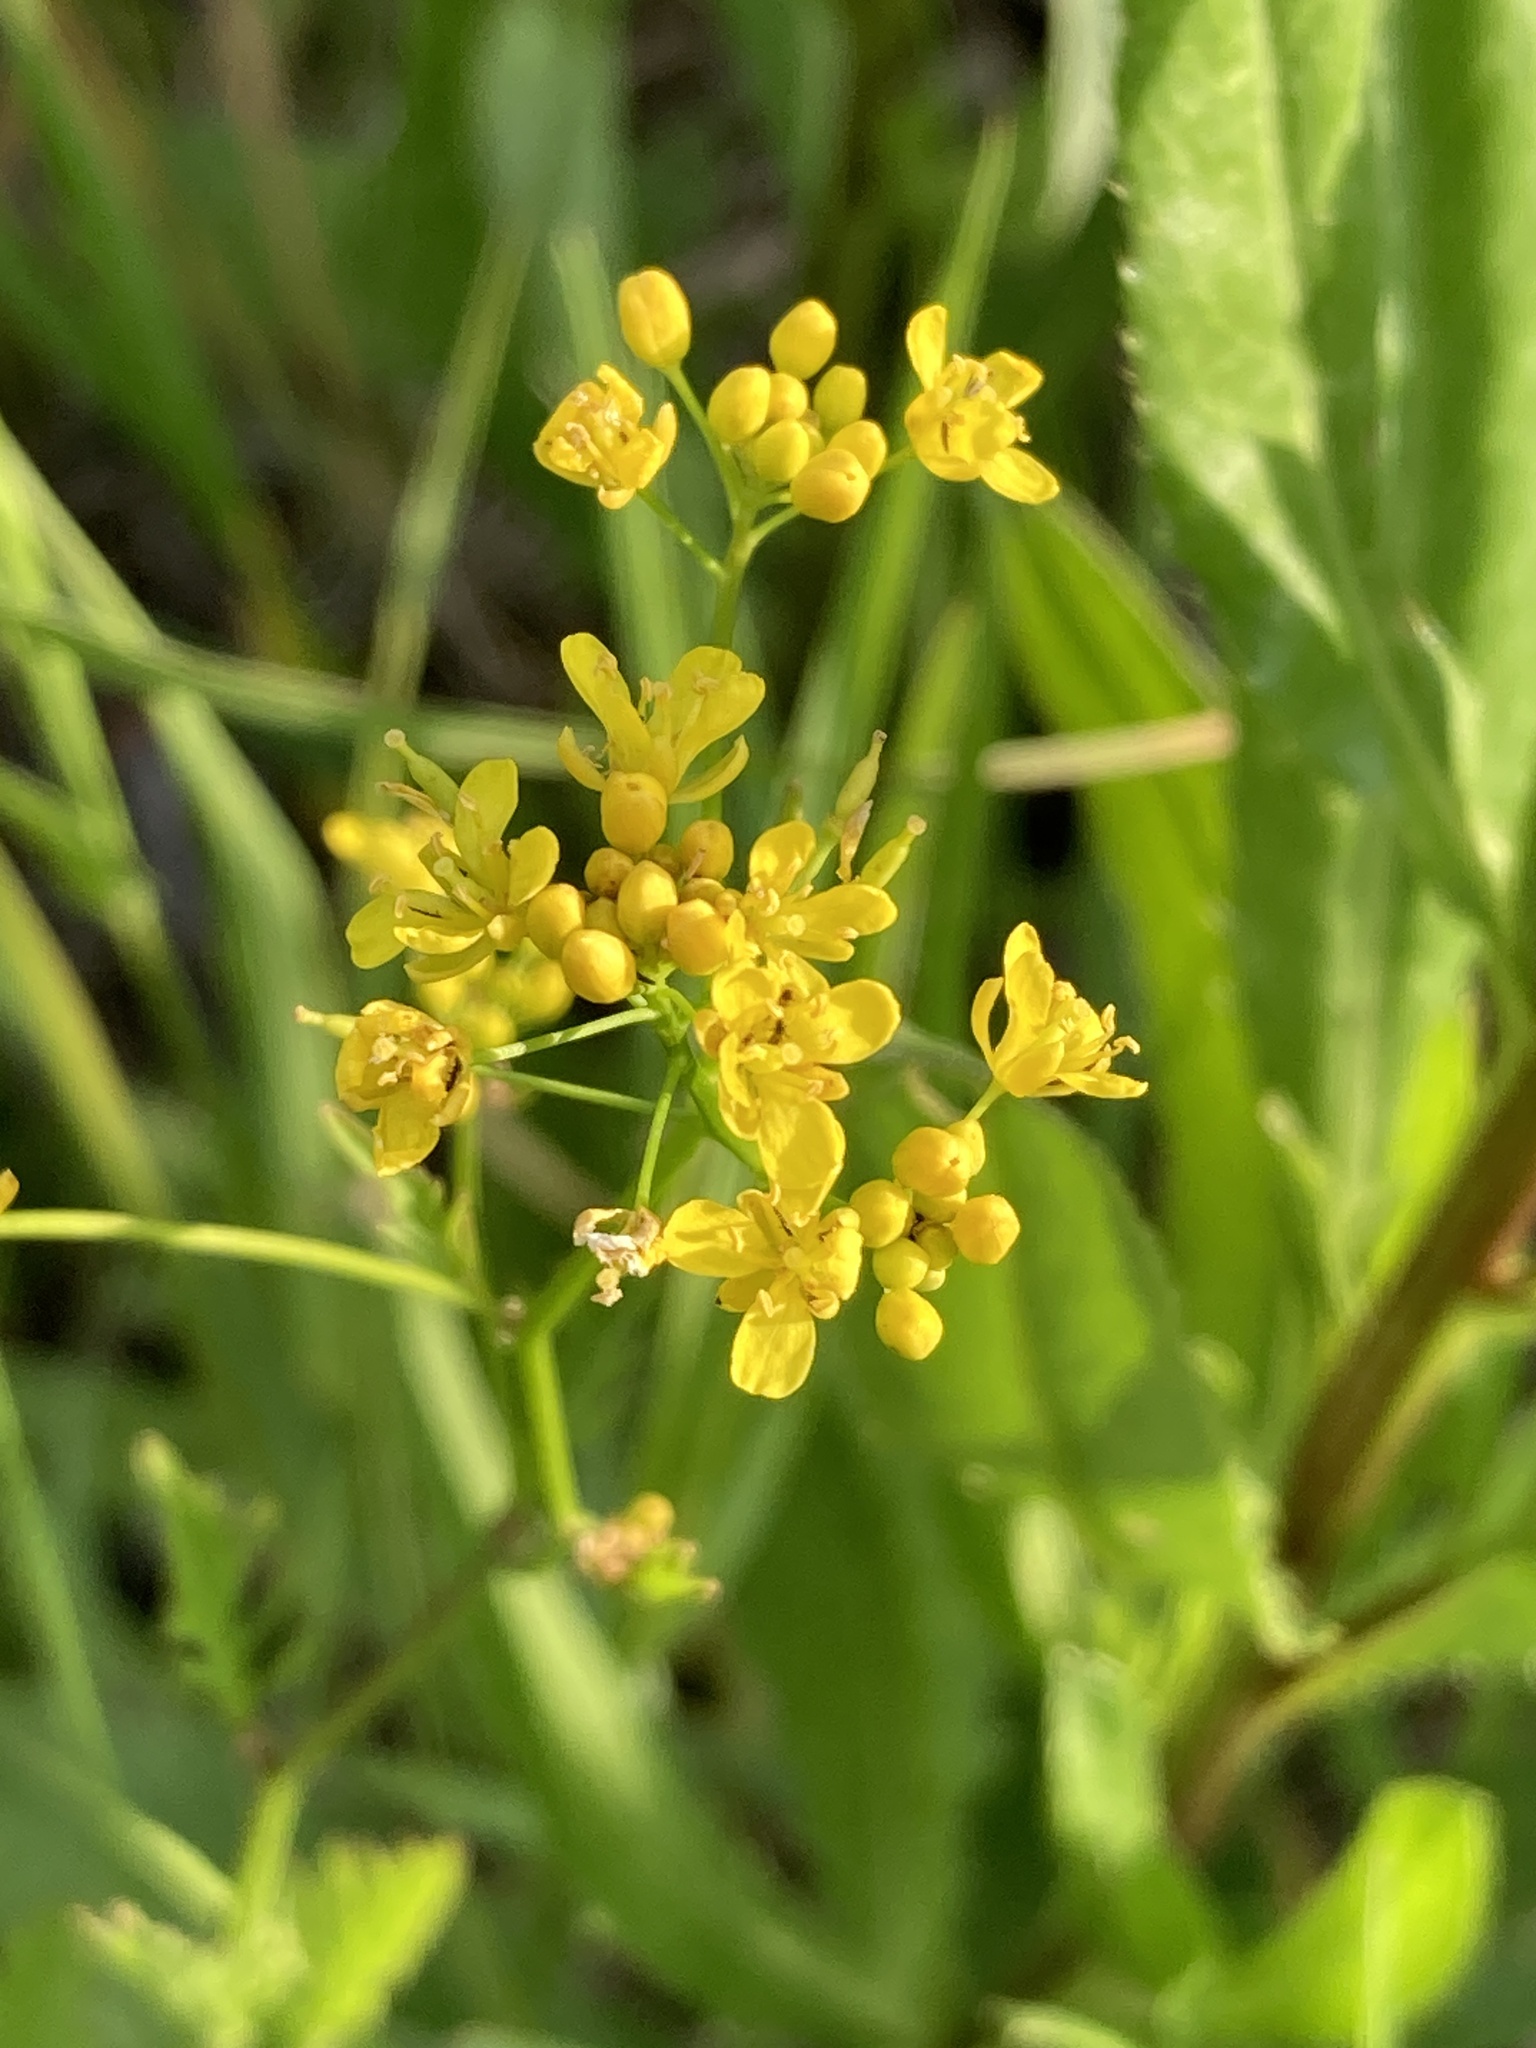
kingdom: Plantae
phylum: Tracheophyta
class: Magnoliopsida
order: Brassicales
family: Brassicaceae
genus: Rorippa
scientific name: Rorippa sylvestris
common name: Creeping yellowcress
